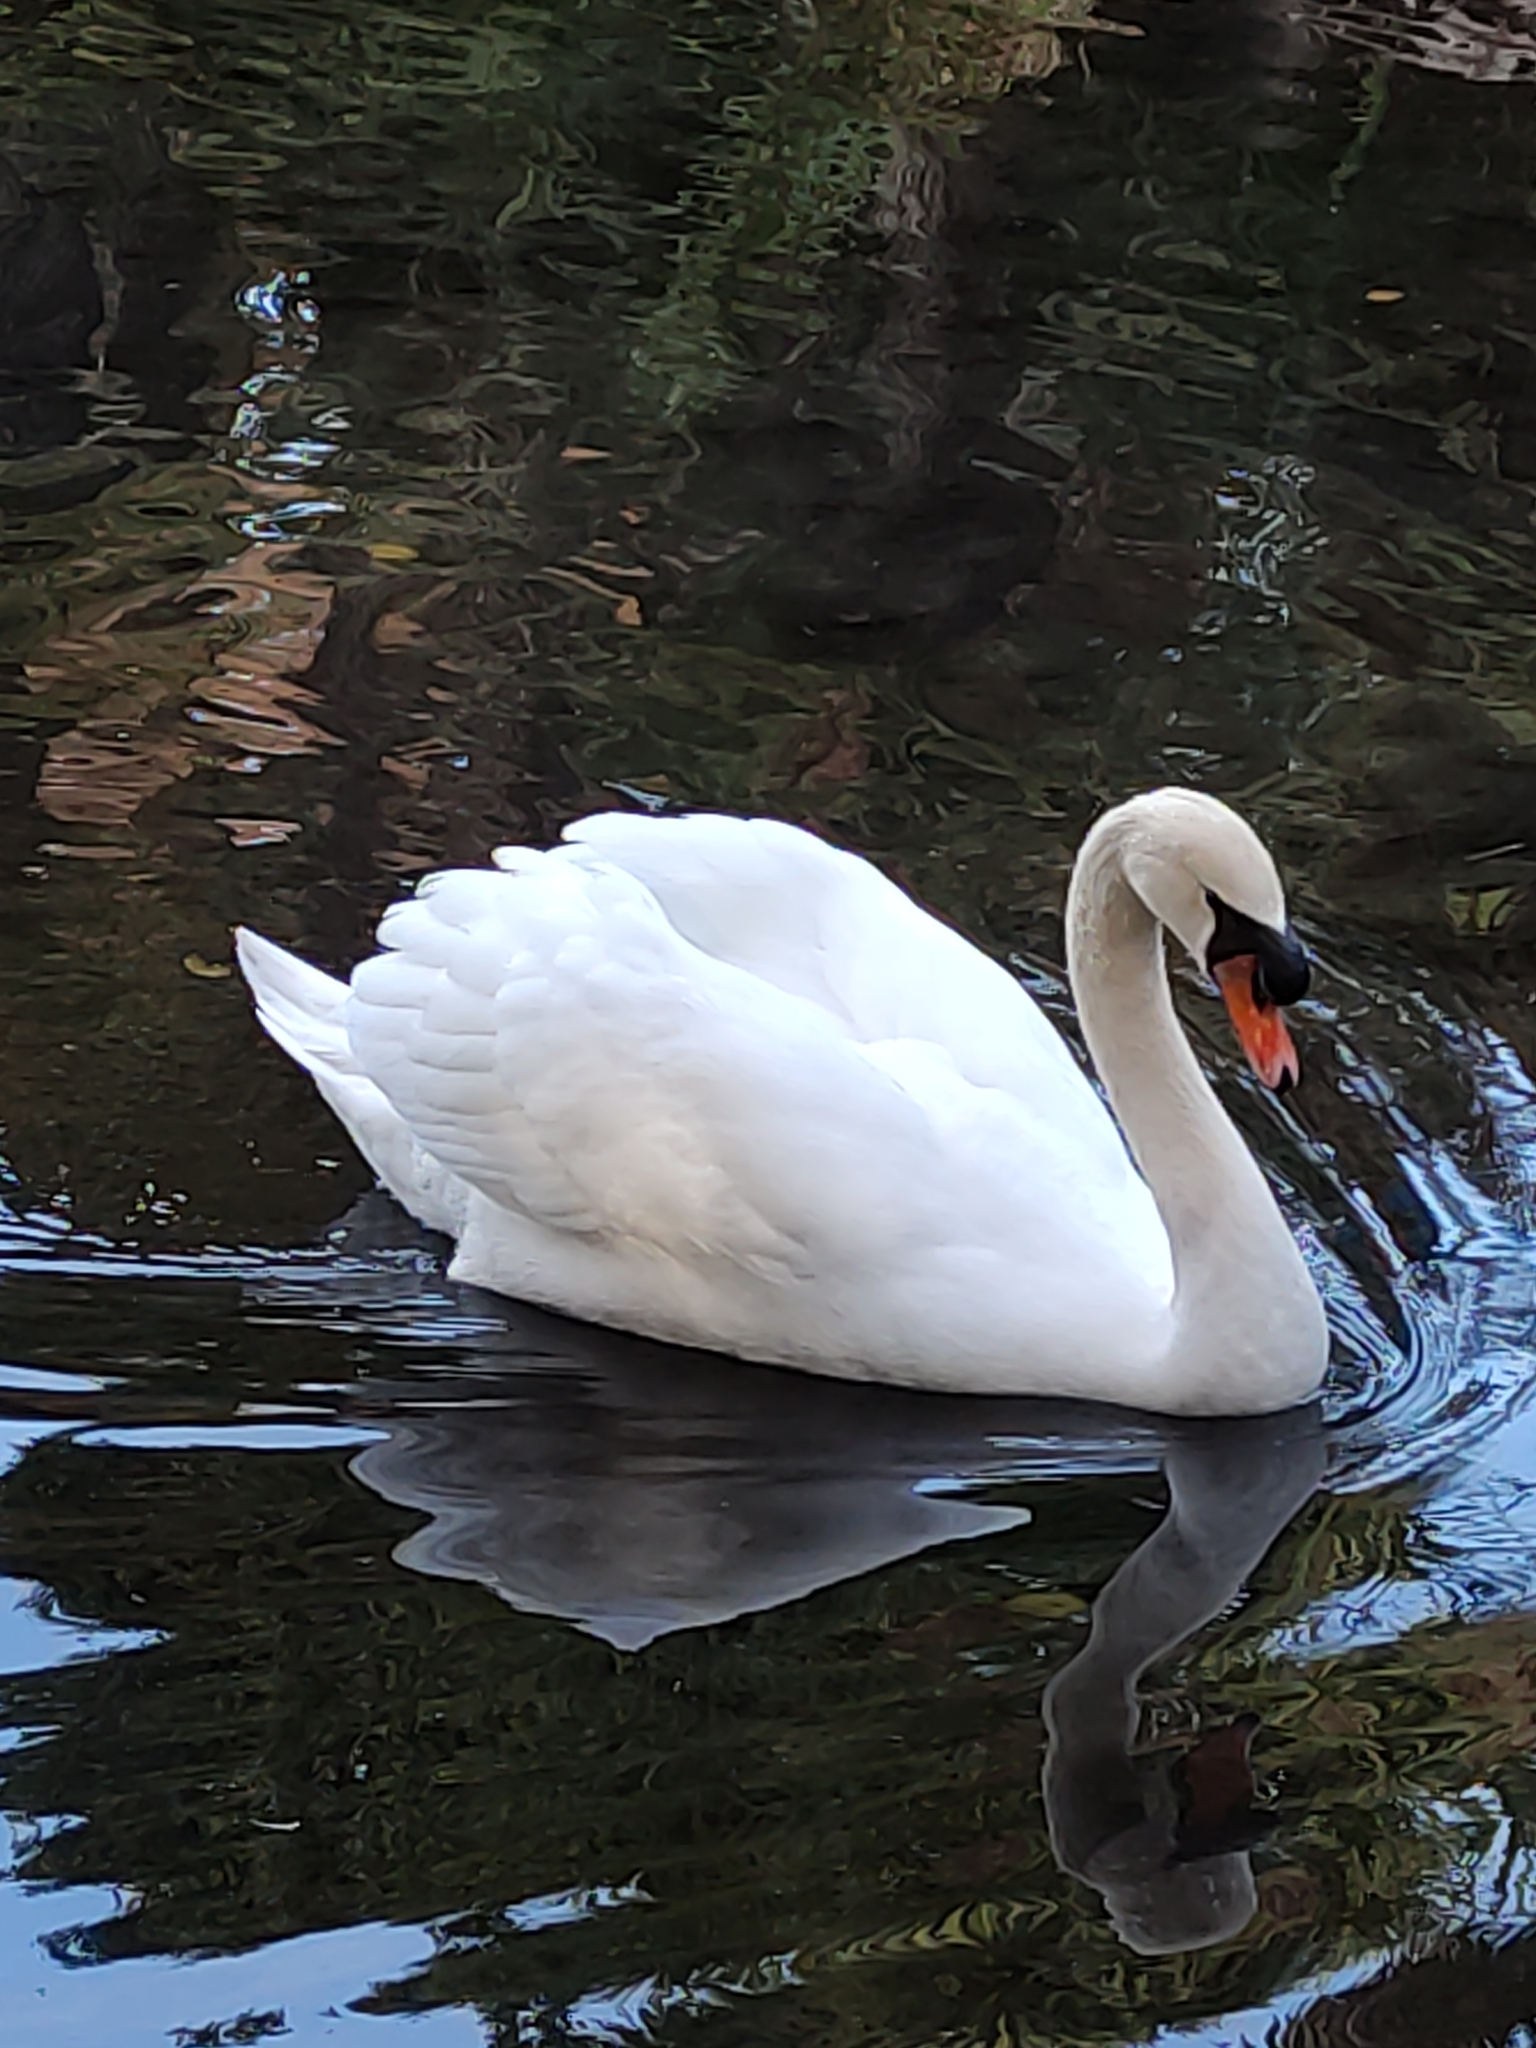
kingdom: Animalia
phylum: Chordata
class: Aves
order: Anseriformes
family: Anatidae
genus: Cygnus
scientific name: Cygnus olor
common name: Mute swan
